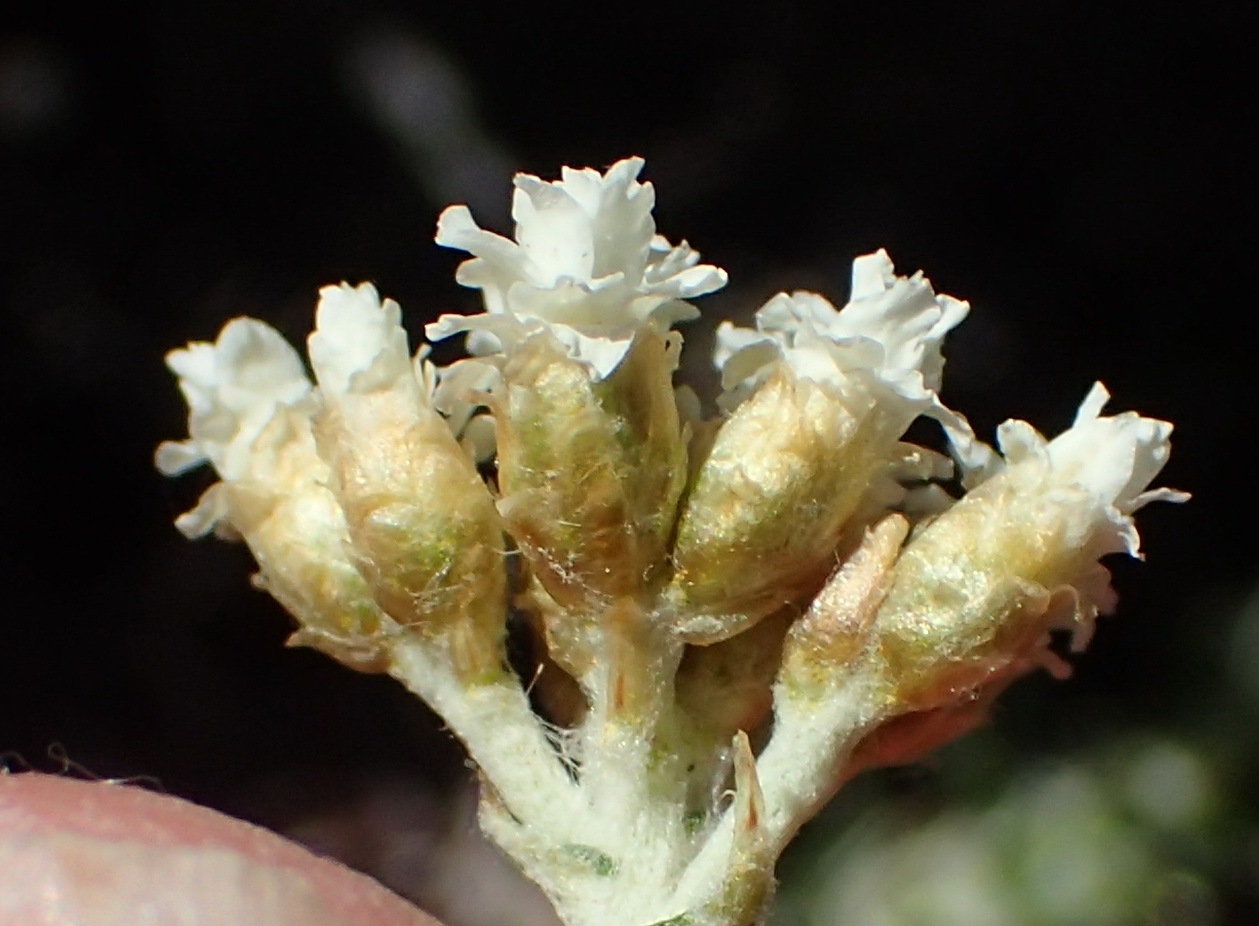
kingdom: Plantae
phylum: Tracheophyta
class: Magnoliopsida
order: Asterales
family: Asteraceae
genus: Helichrysum
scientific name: Helichrysum teretifolium
